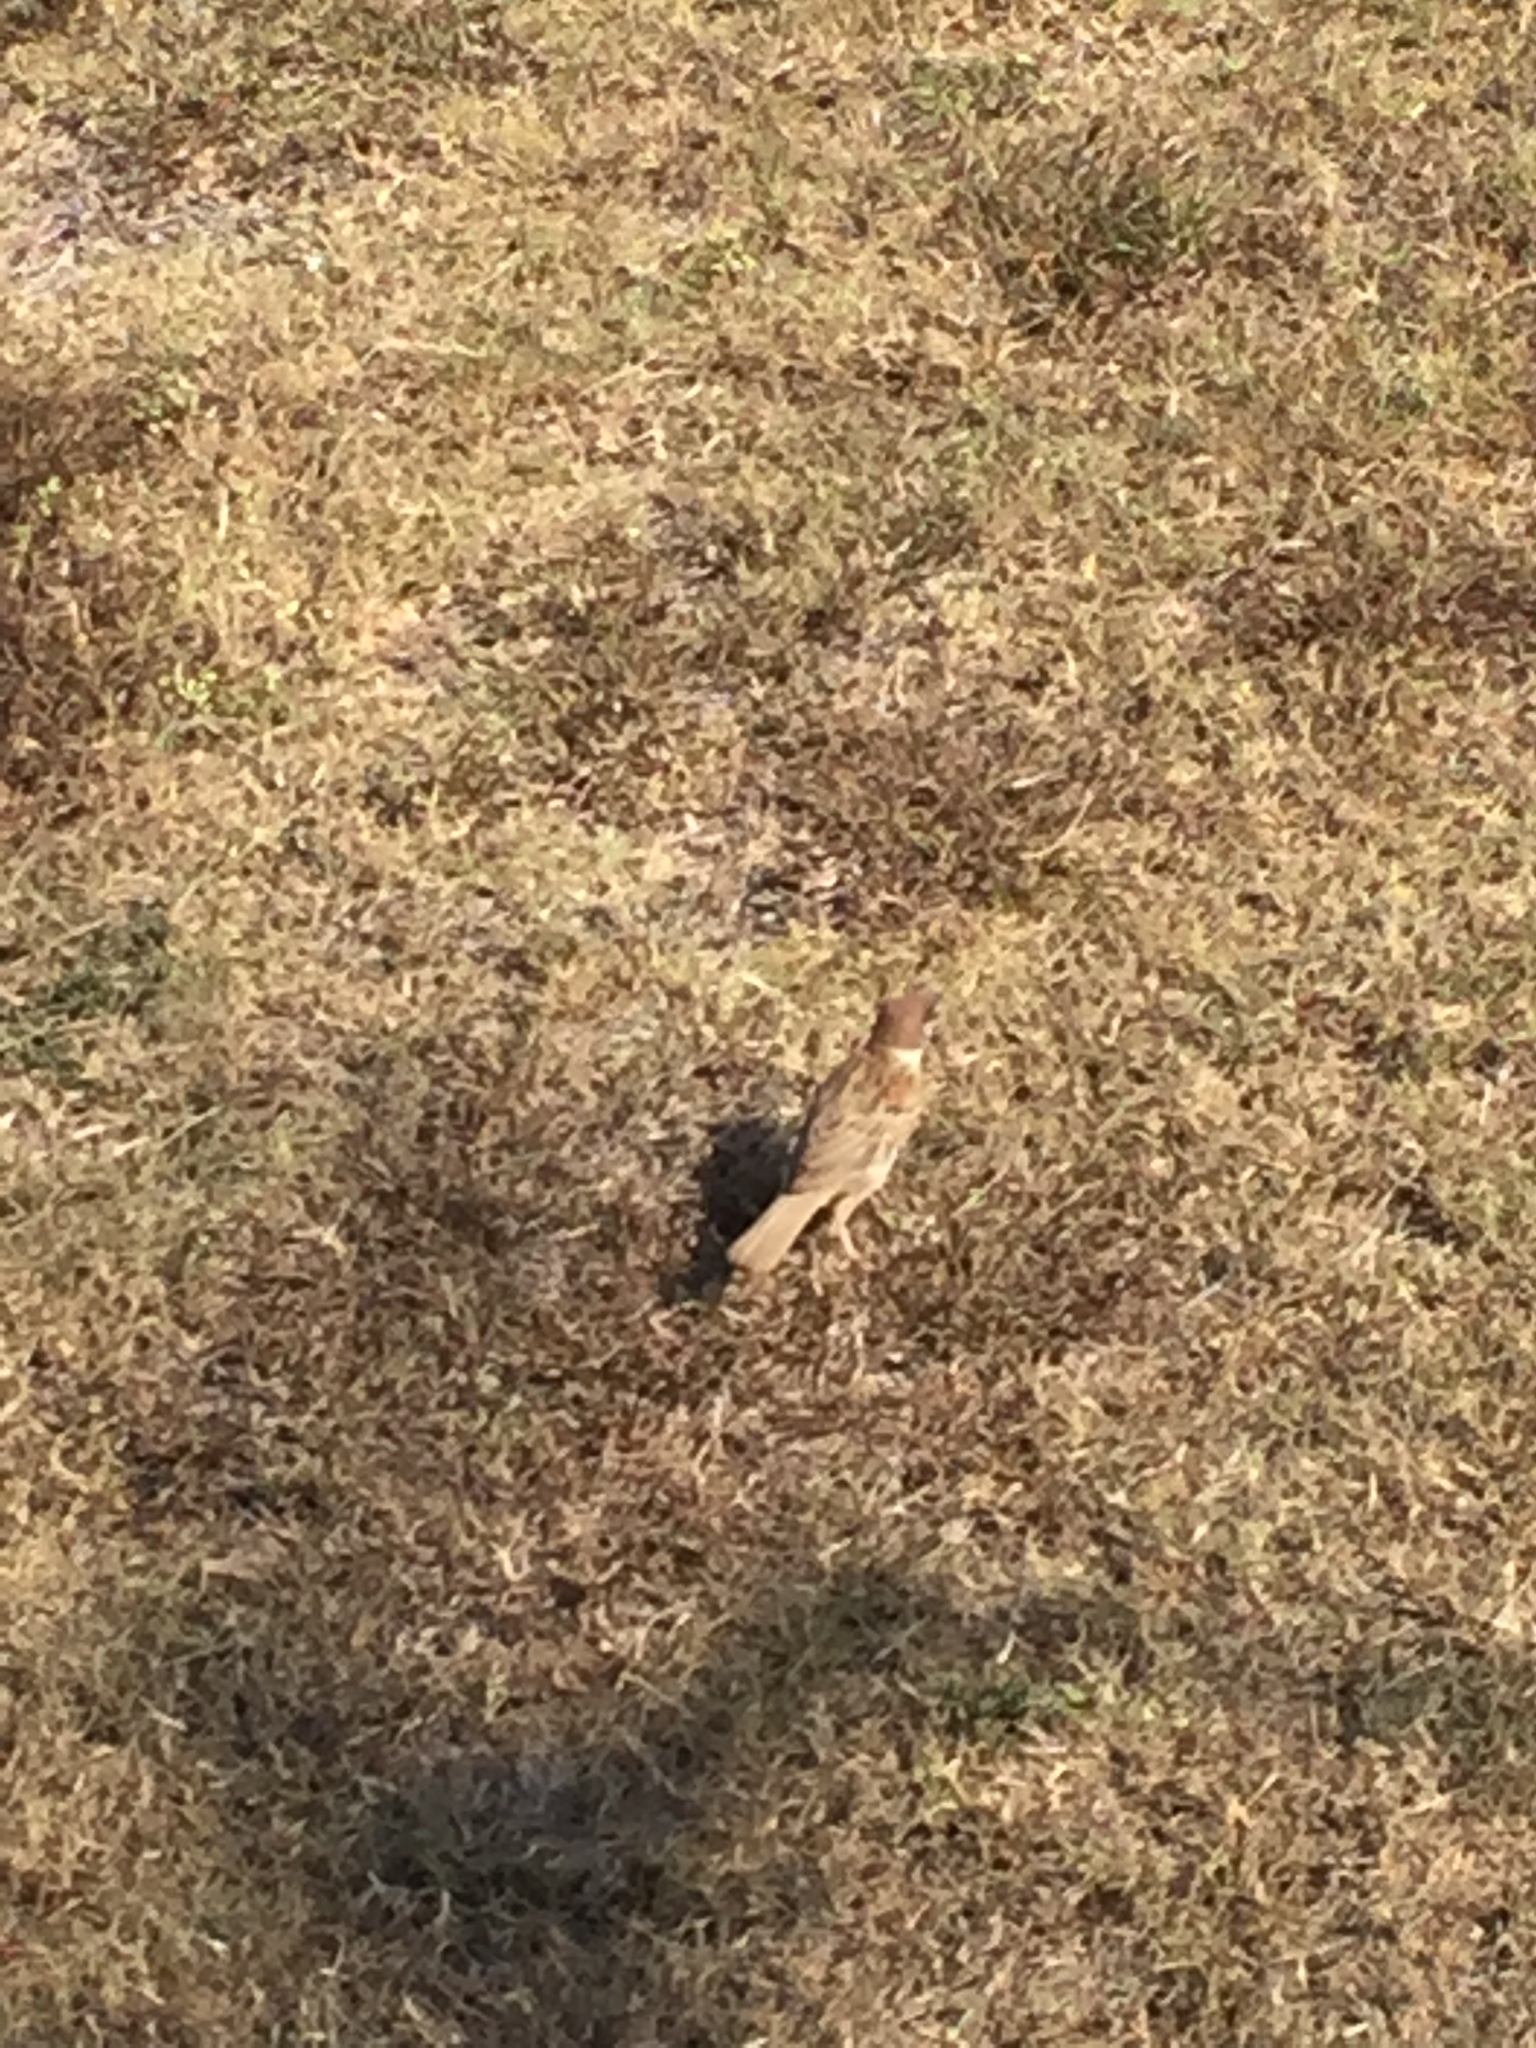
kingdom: Animalia
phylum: Chordata
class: Aves
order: Passeriformes
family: Passeridae
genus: Passer
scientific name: Passer montanus
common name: Eurasian tree sparrow
